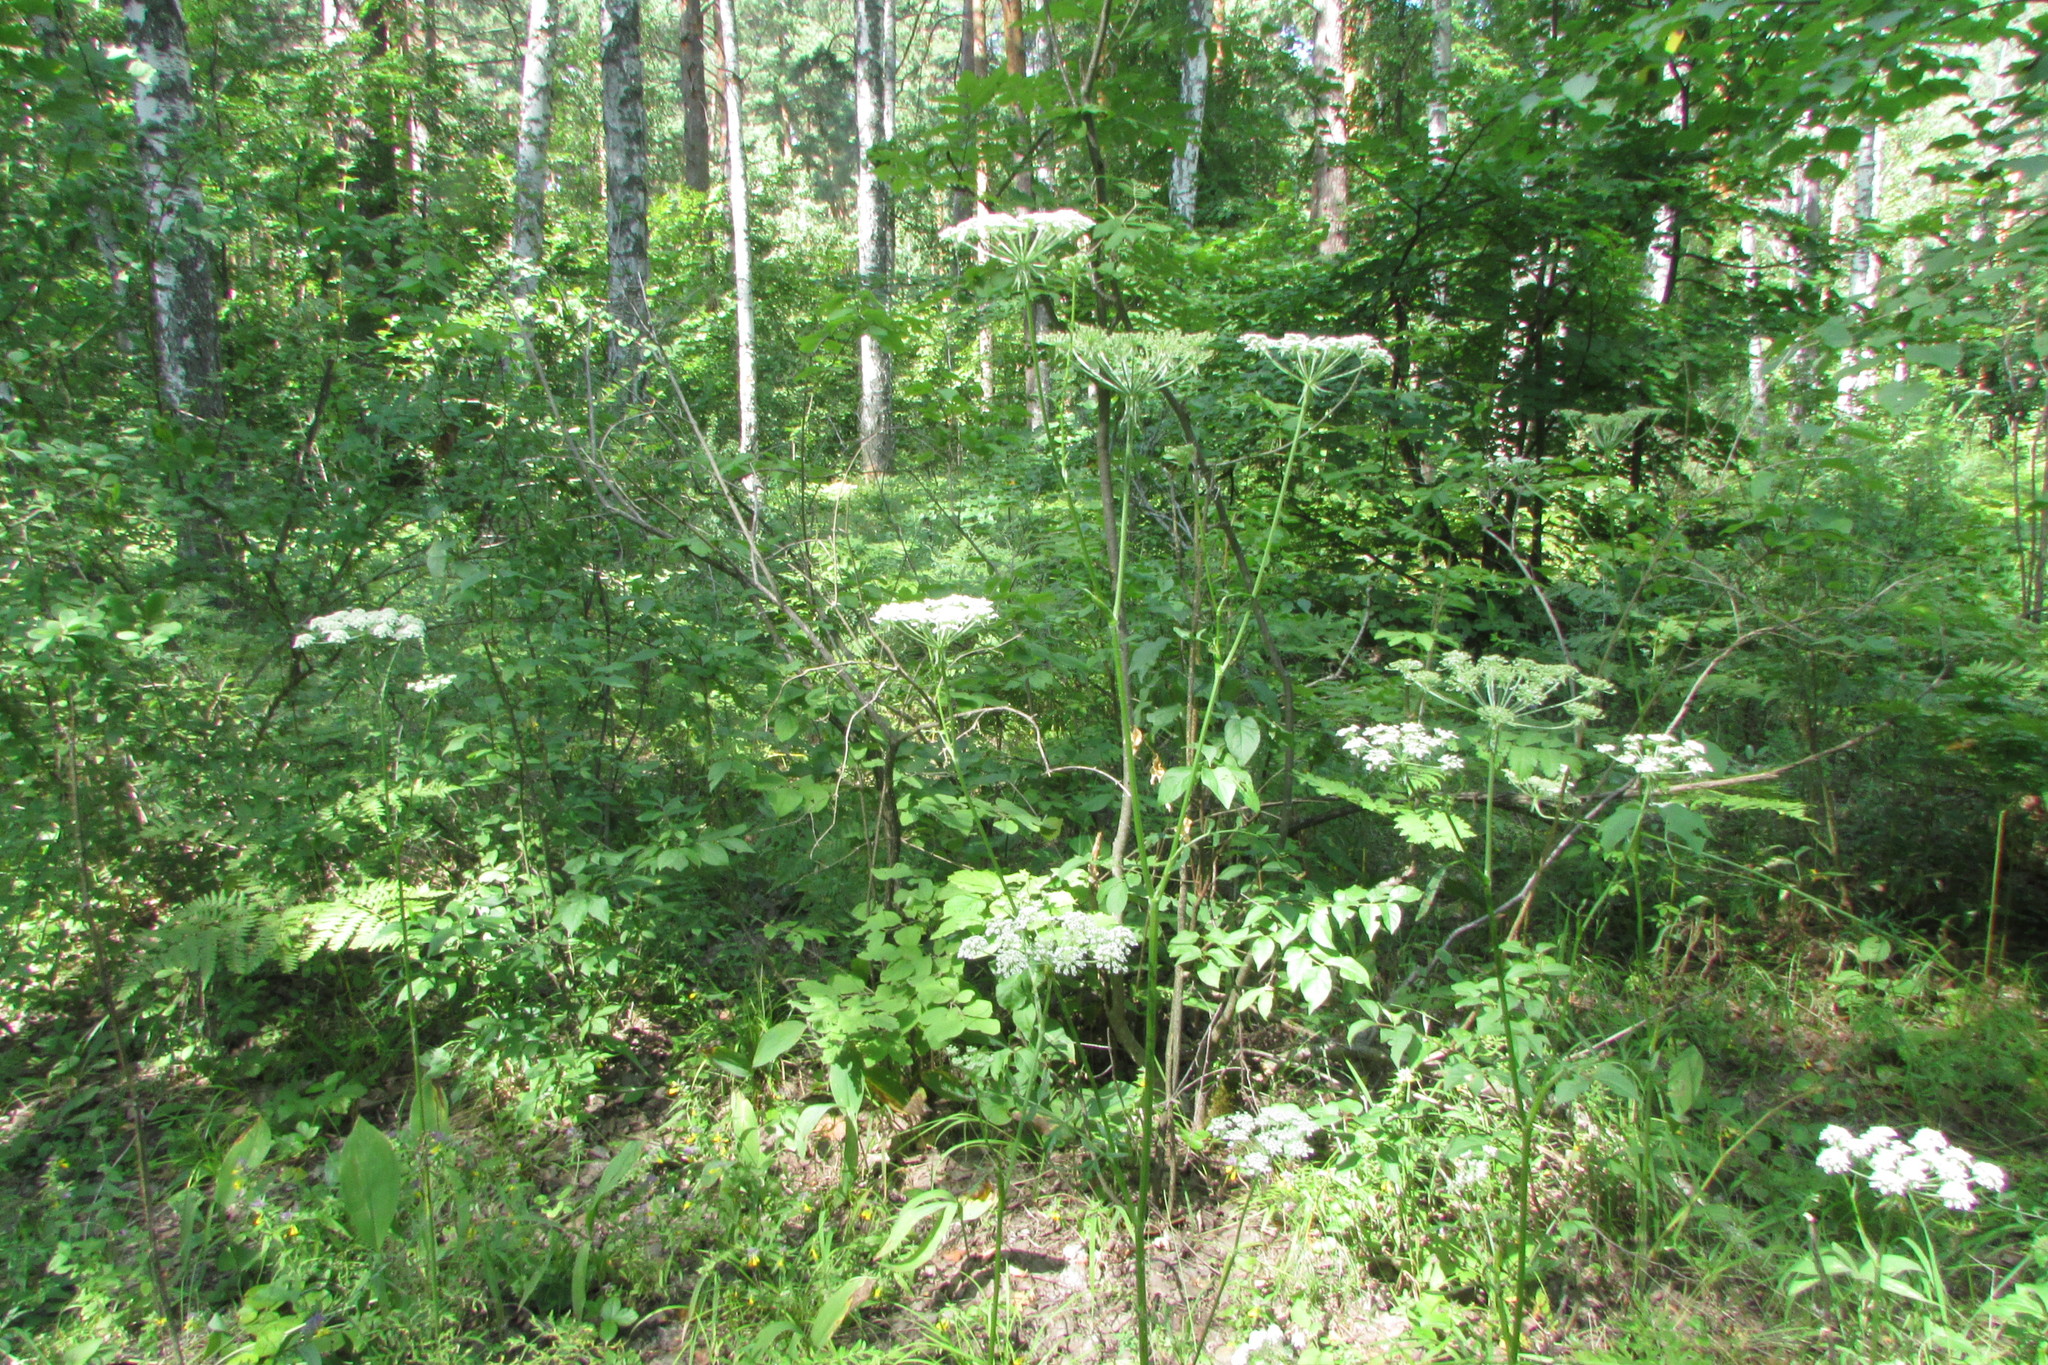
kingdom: Plantae
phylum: Tracheophyta
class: Magnoliopsida
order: Apiales
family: Apiaceae
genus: Silphiodaucus
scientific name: Silphiodaucus prutenicus
